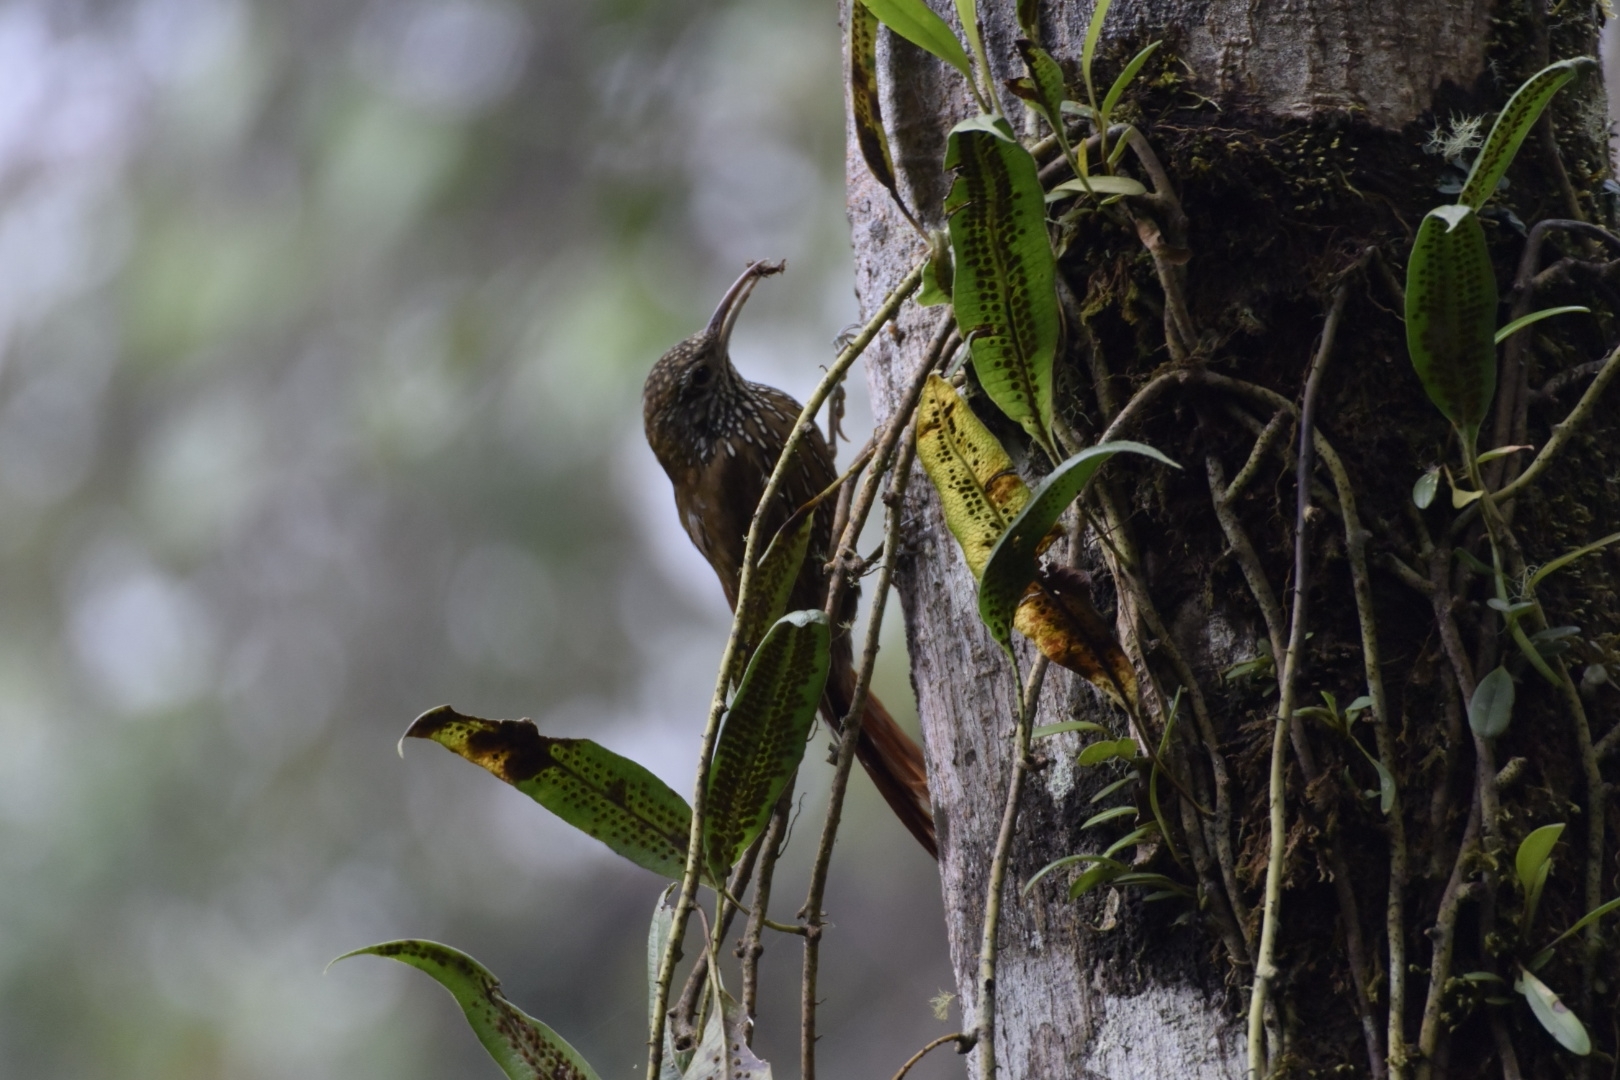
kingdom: Animalia
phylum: Chordata
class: Aves
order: Passeriformes
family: Furnariidae
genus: Lepidocolaptes
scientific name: Lepidocolaptes lacrymiger
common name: Montane woodcreeper
